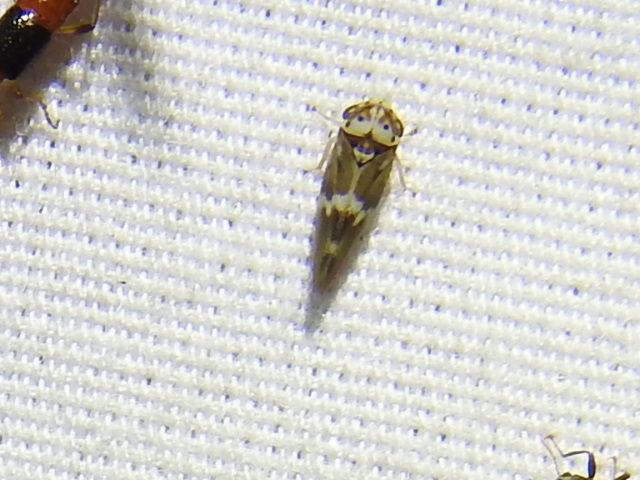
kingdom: Animalia
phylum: Arthropoda
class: Insecta
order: Hemiptera
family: Cicadellidae
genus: Agalliopsis
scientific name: Agalliopsis cervina
